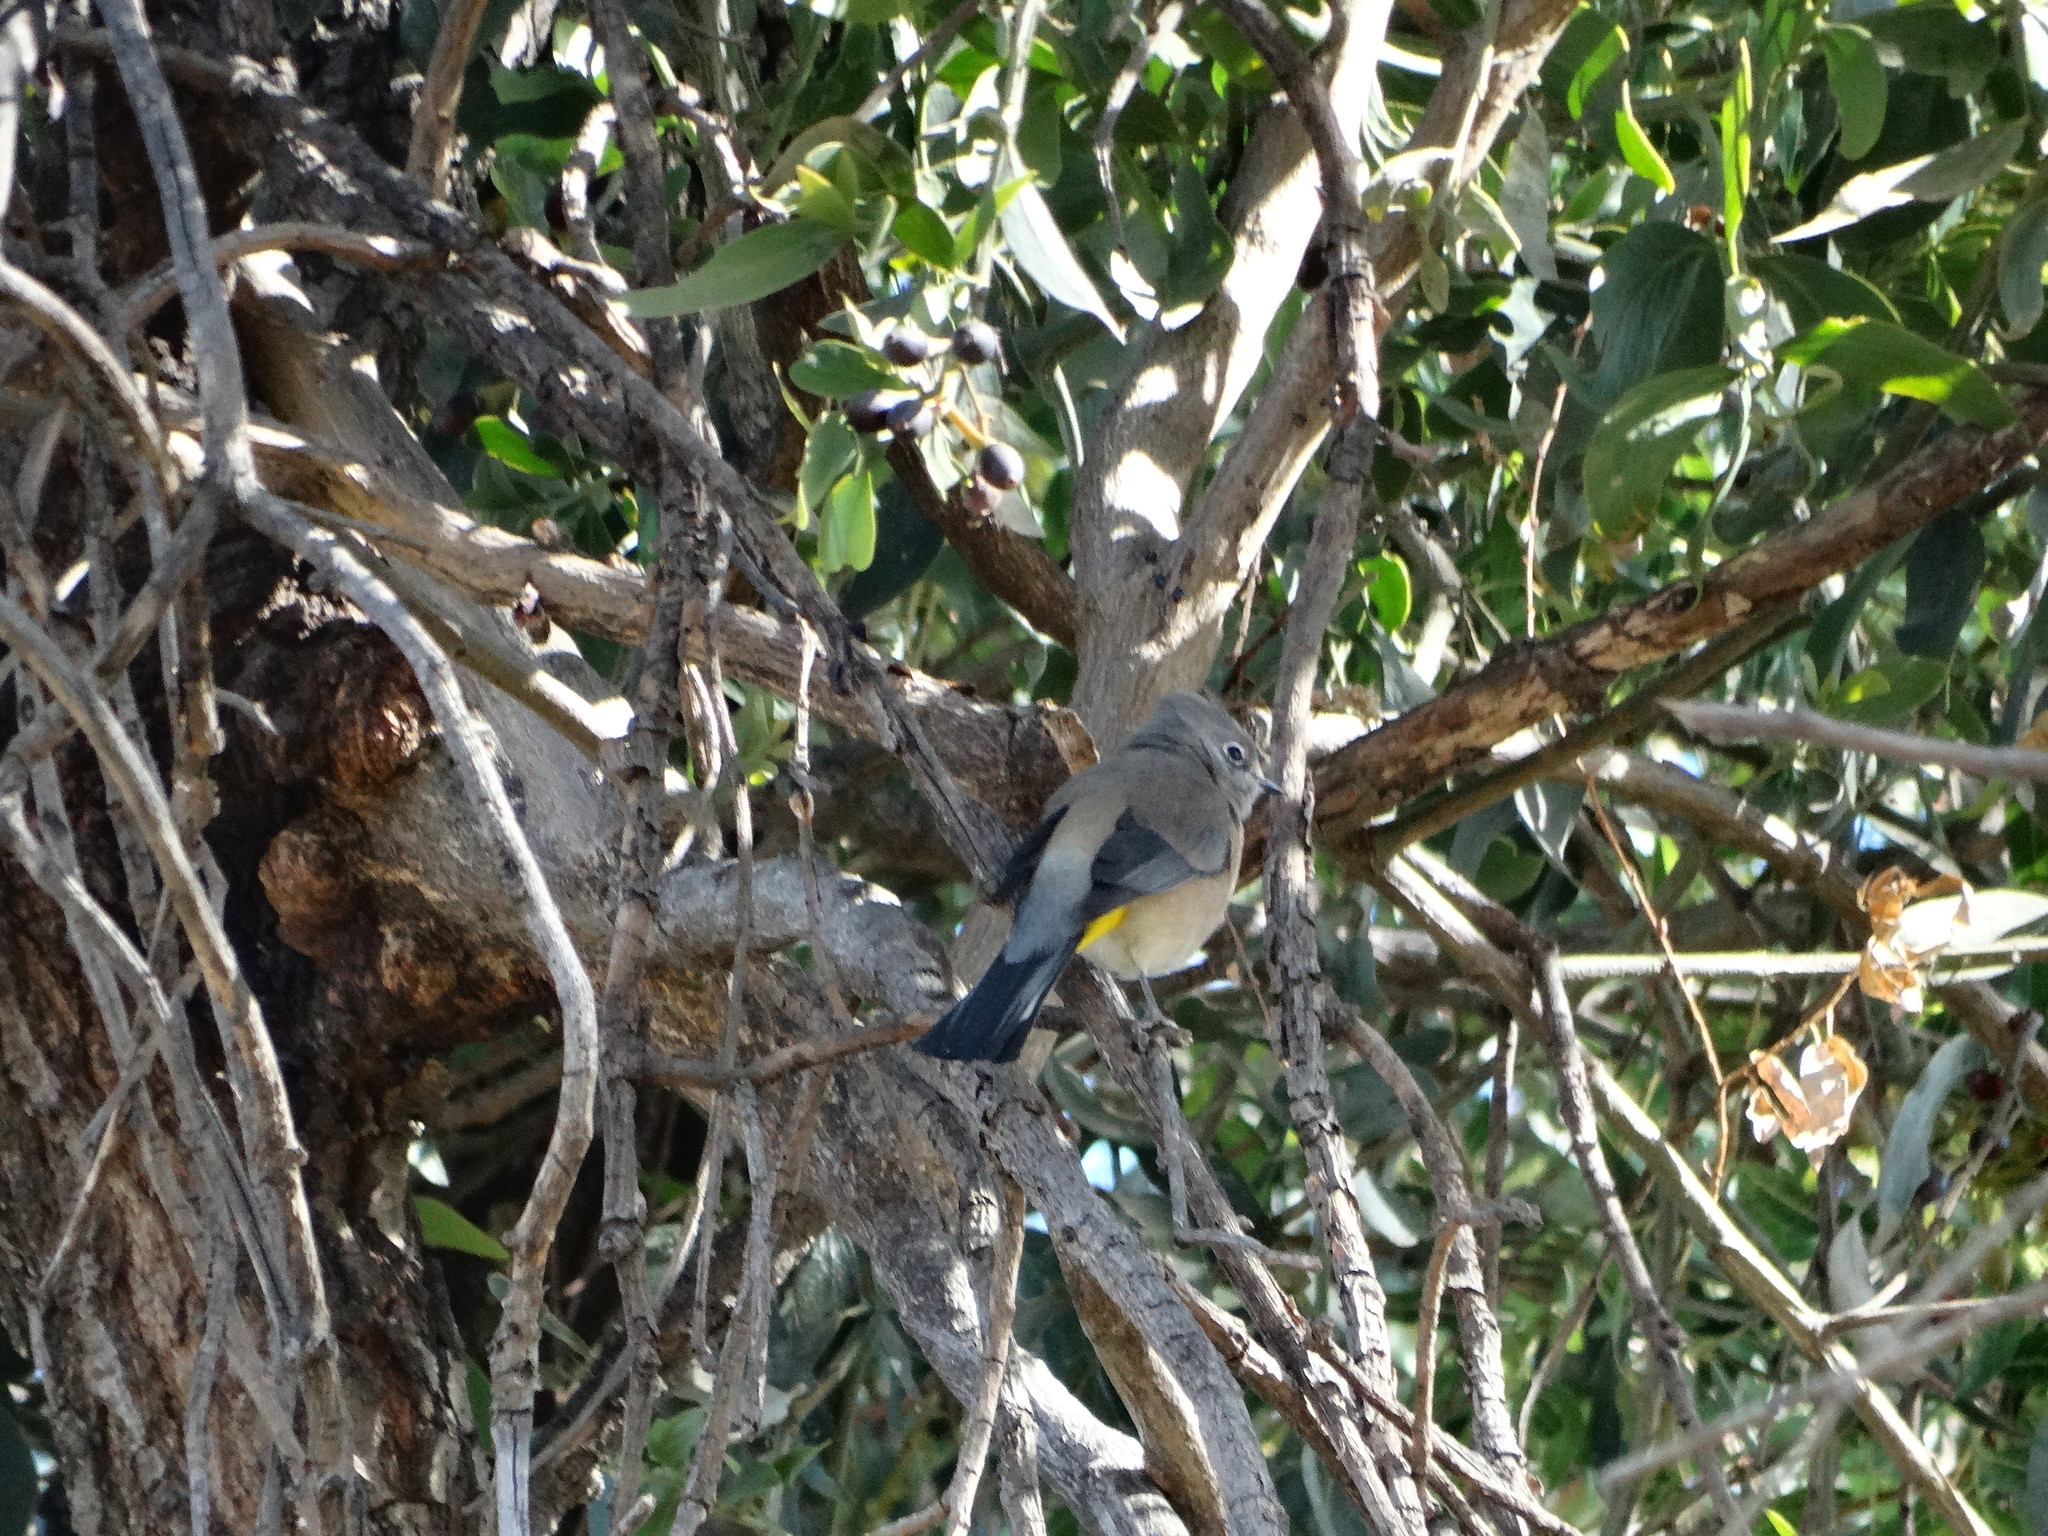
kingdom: Animalia
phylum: Chordata
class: Aves
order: Passeriformes
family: Ptilogonatidae
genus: Ptilogonys
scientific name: Ptilogonys cinereus
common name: Gray silky-flycatcher
